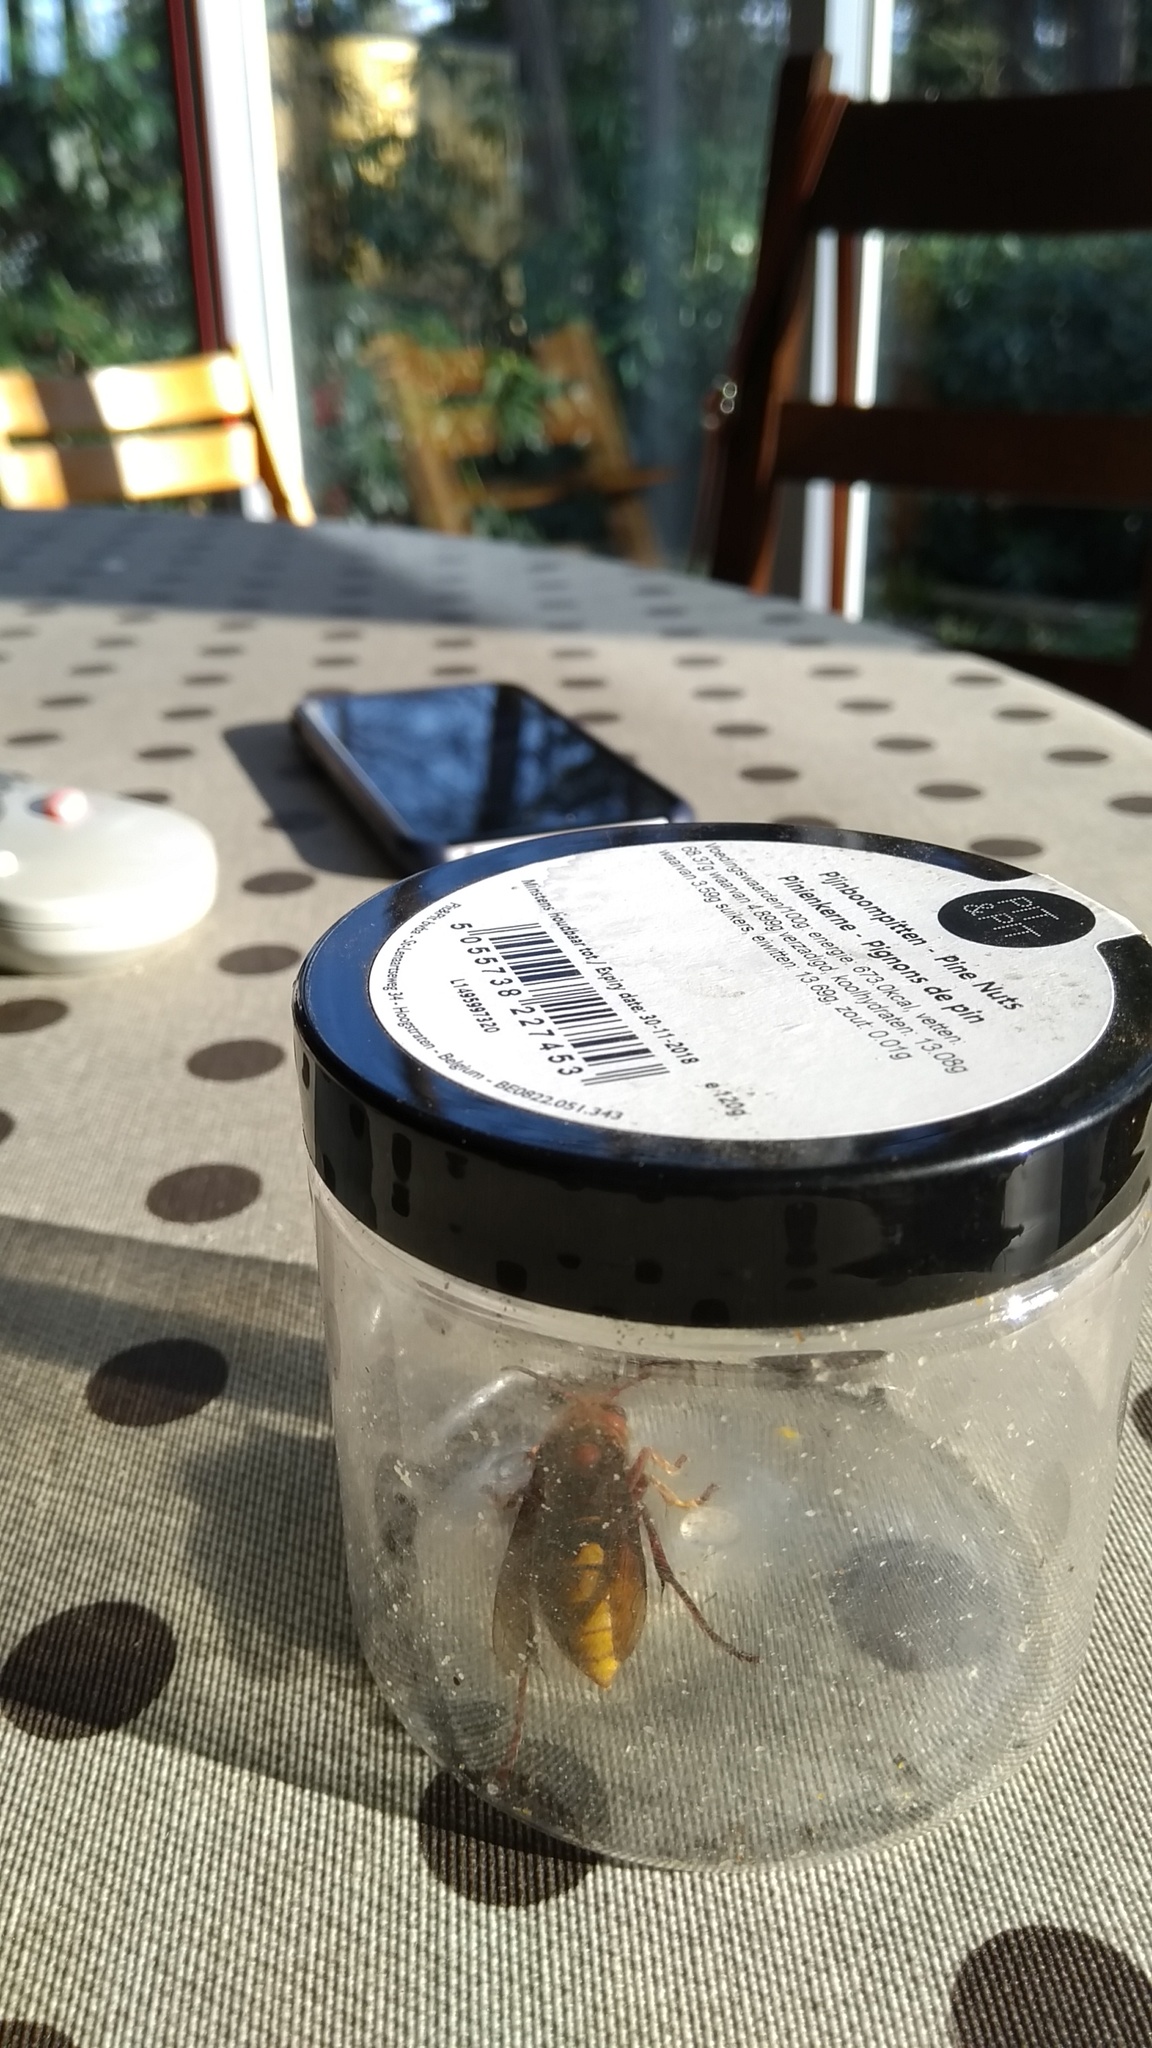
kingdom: Animalia
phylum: Arthropoda
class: Insecta
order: Hymenoptera
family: Vespidae
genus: Vespa
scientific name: Vespa crabro
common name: Hornet
